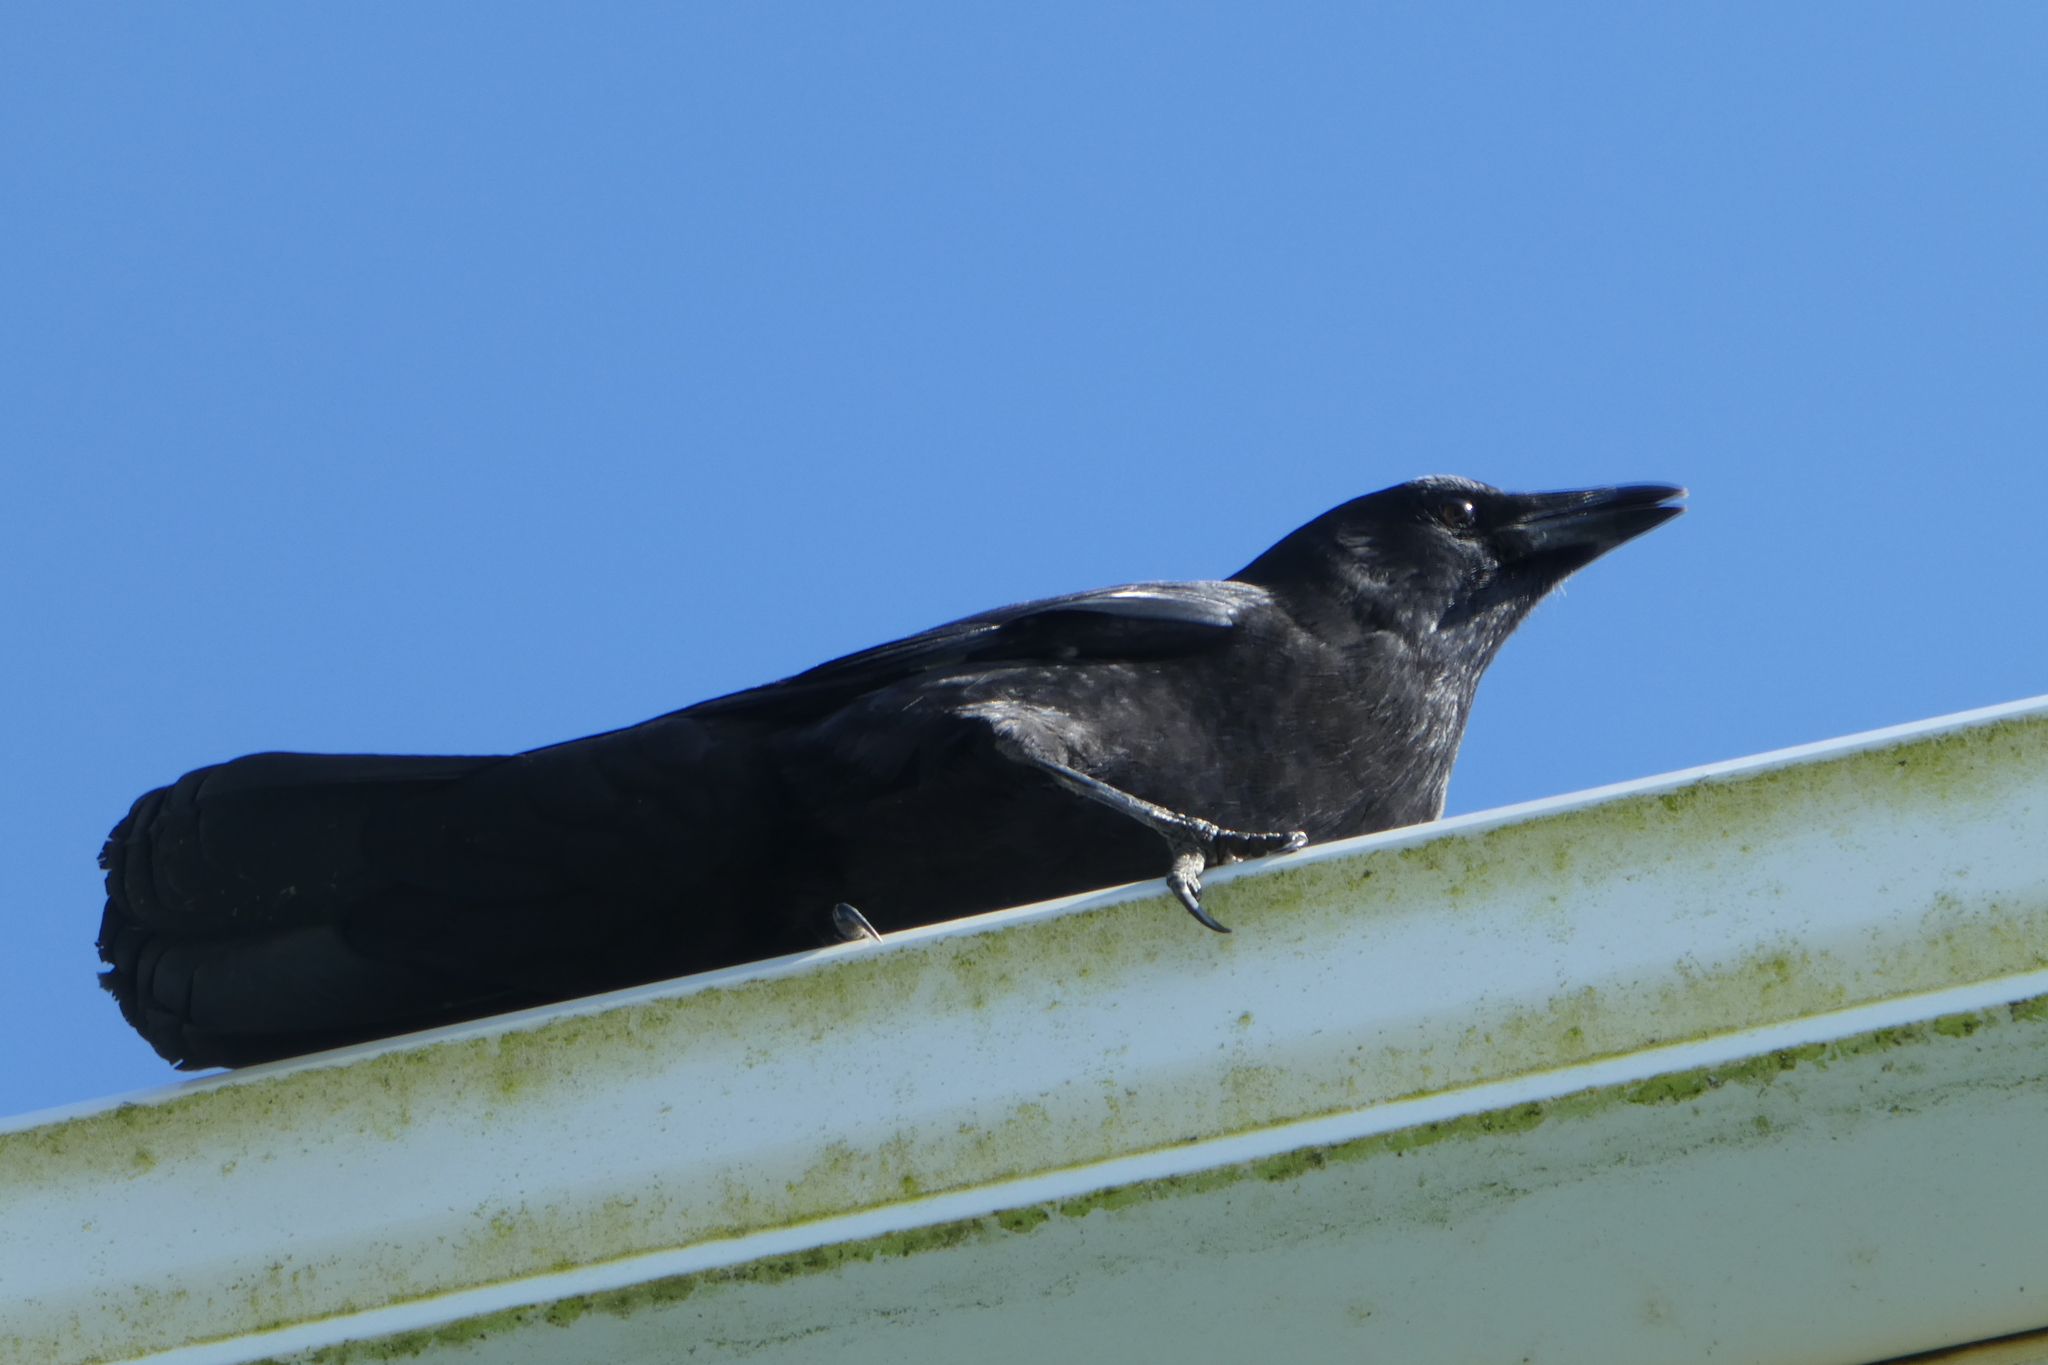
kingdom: Animalia
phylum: Chordata
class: Aves
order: Passeriformes
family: Corvidae
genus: Corvus
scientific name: Corvus brachyrhynchos
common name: American crow
